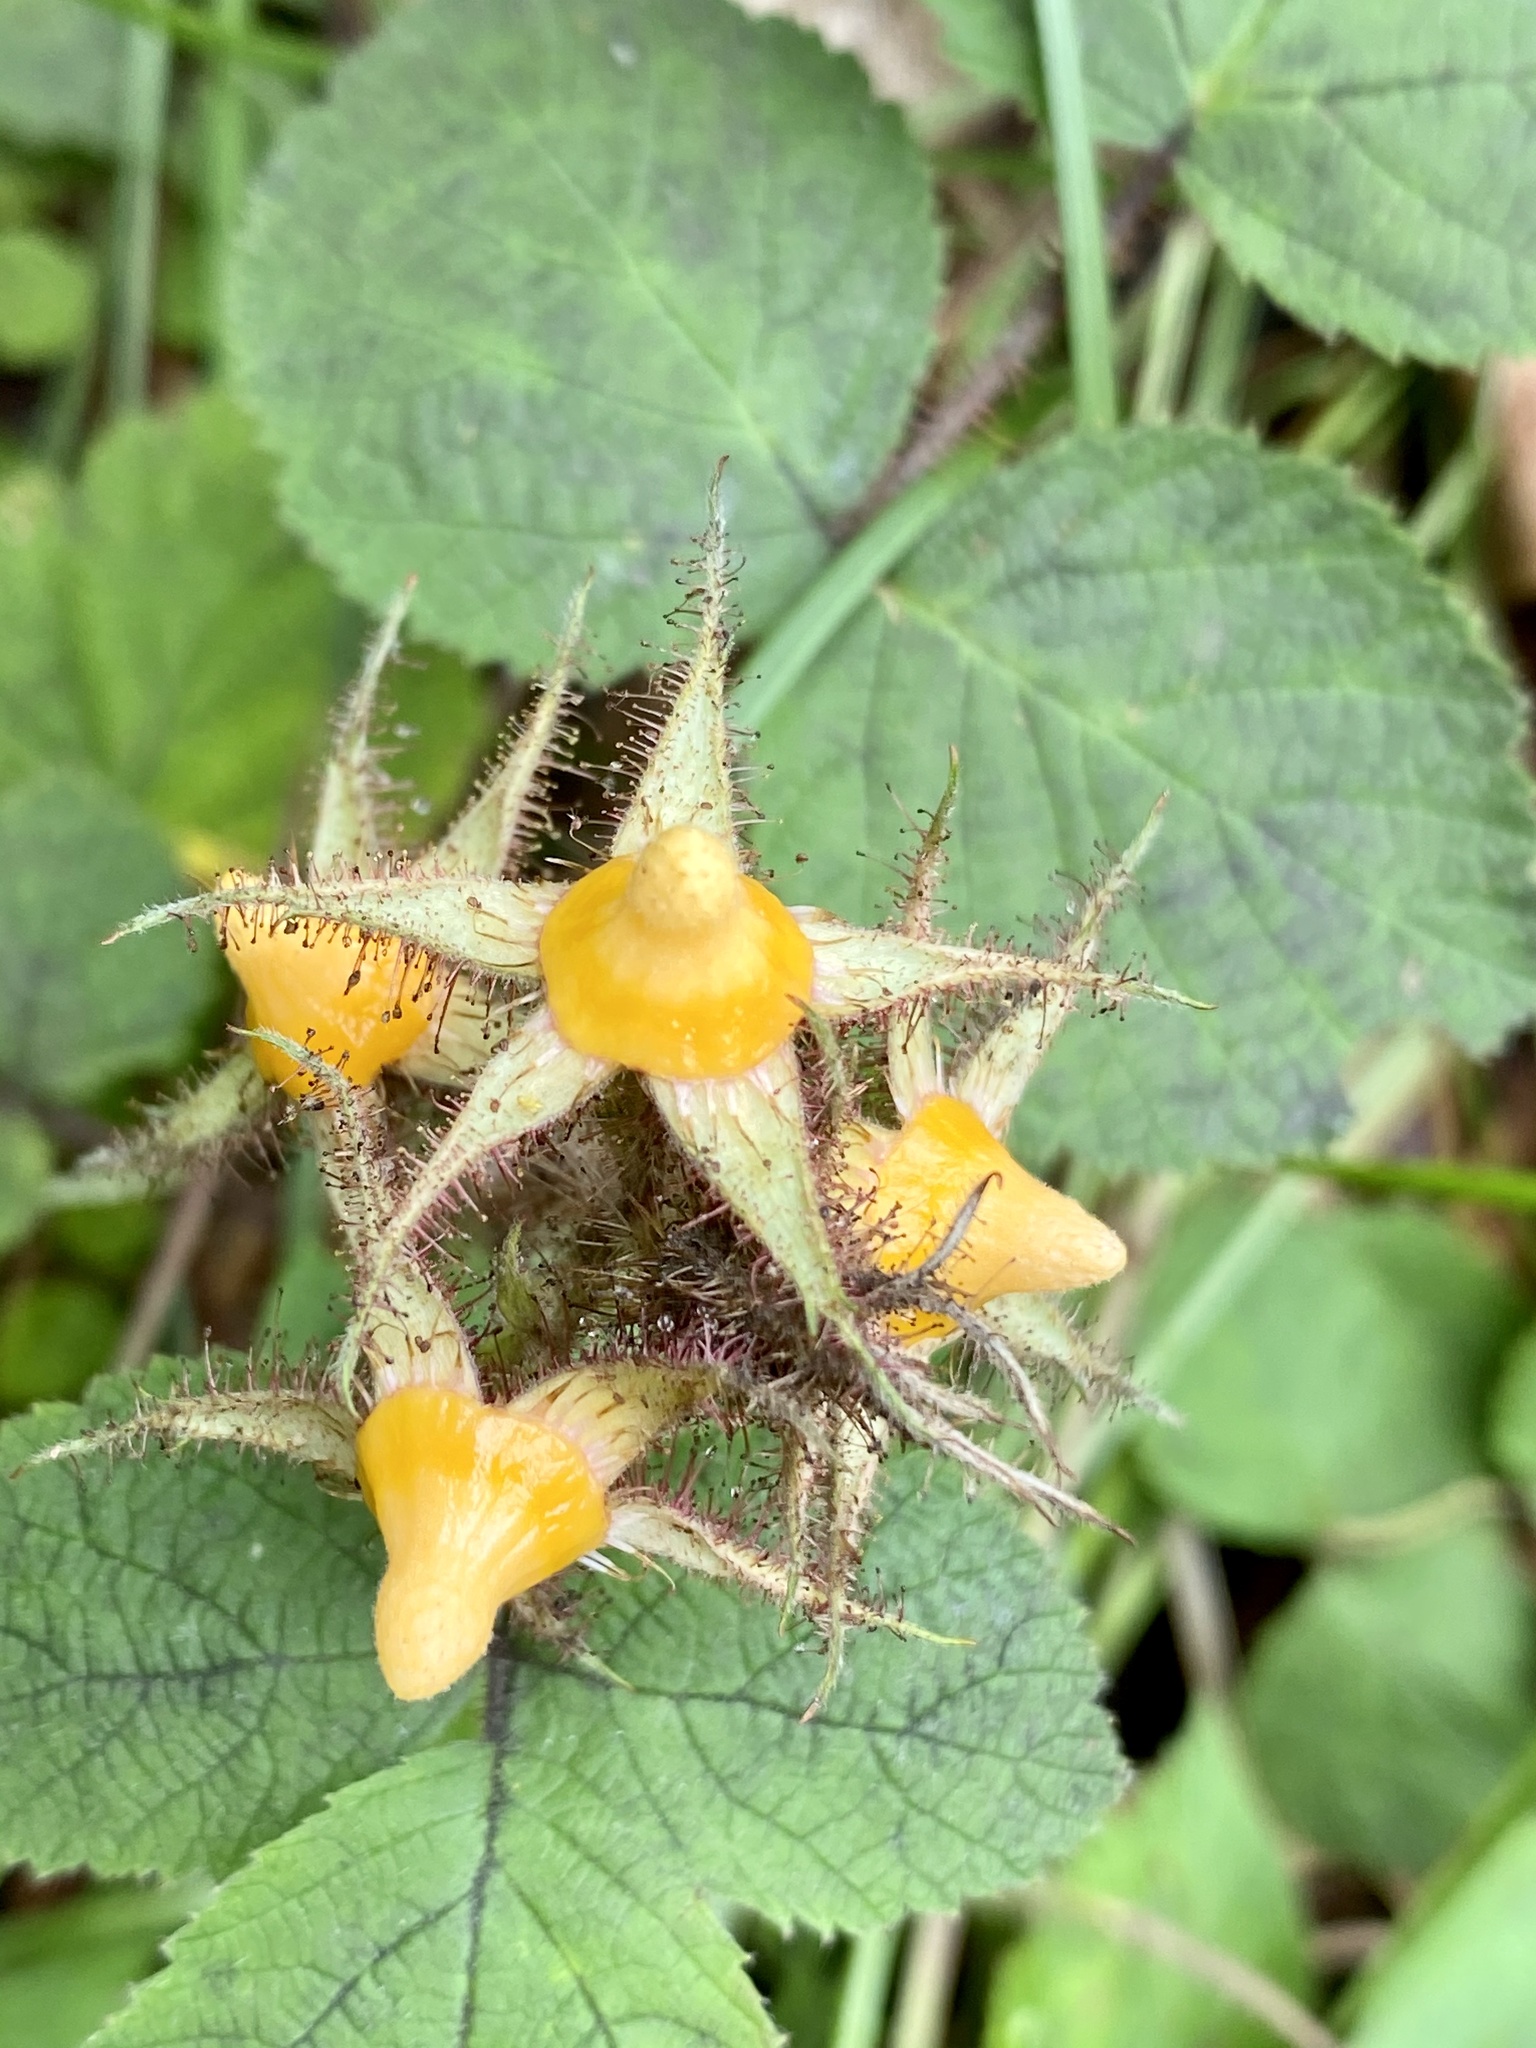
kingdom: Plantae
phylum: Tracheophyta
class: Magnoliopsida
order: Rosales
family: Rosaceae
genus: Rubus
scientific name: Rubus phoenicolasius
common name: Japanese wineberry
